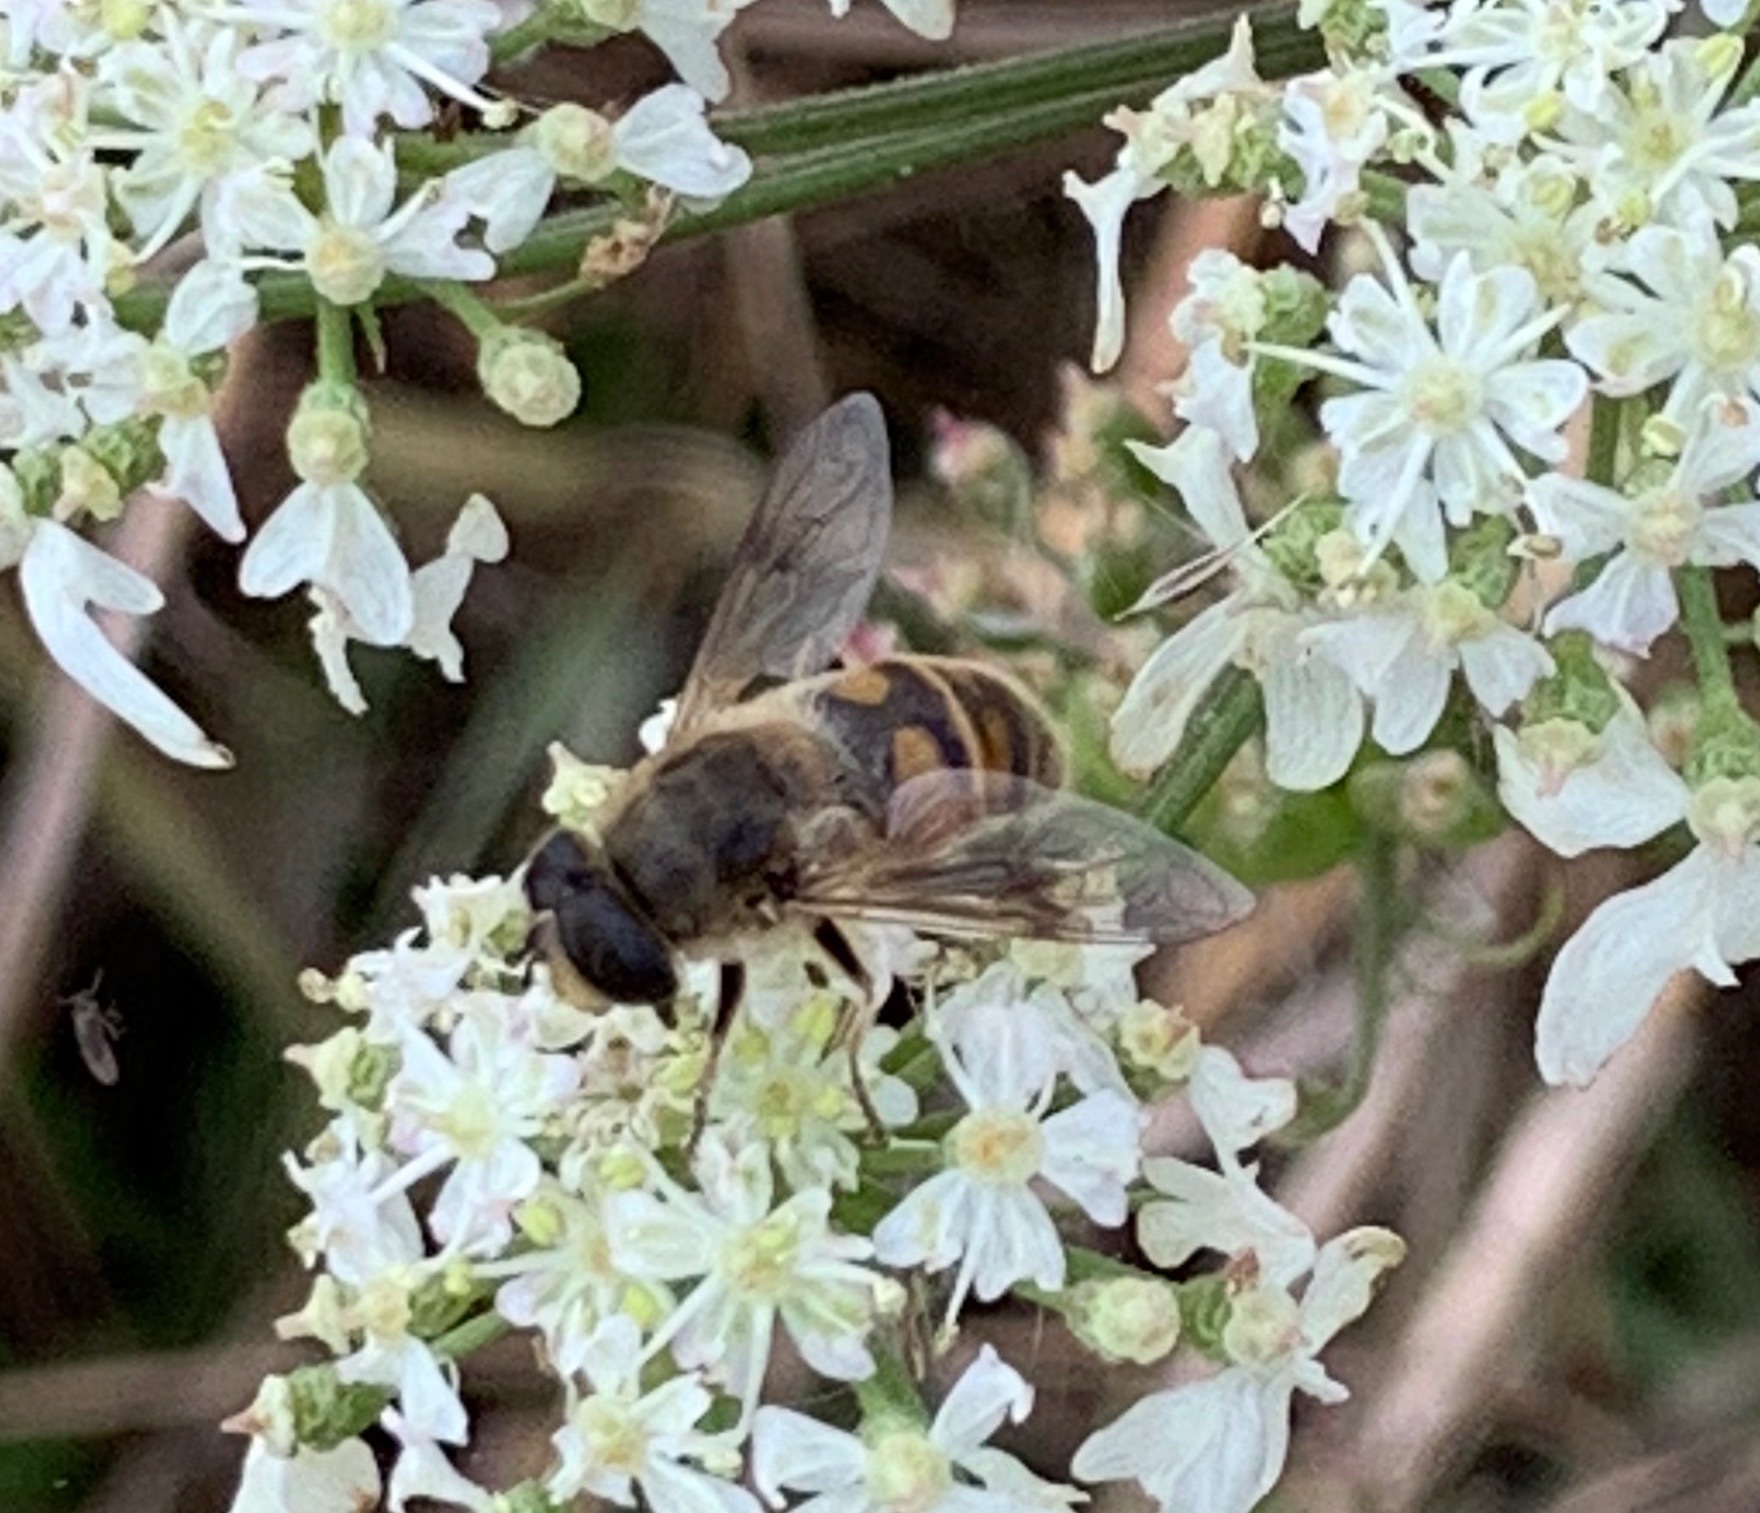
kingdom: Animalia
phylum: Arthropoda
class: Insecta
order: Diptera
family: Syrphidae
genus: Eristalis
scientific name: Eristalis tenax
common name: Drone fly
